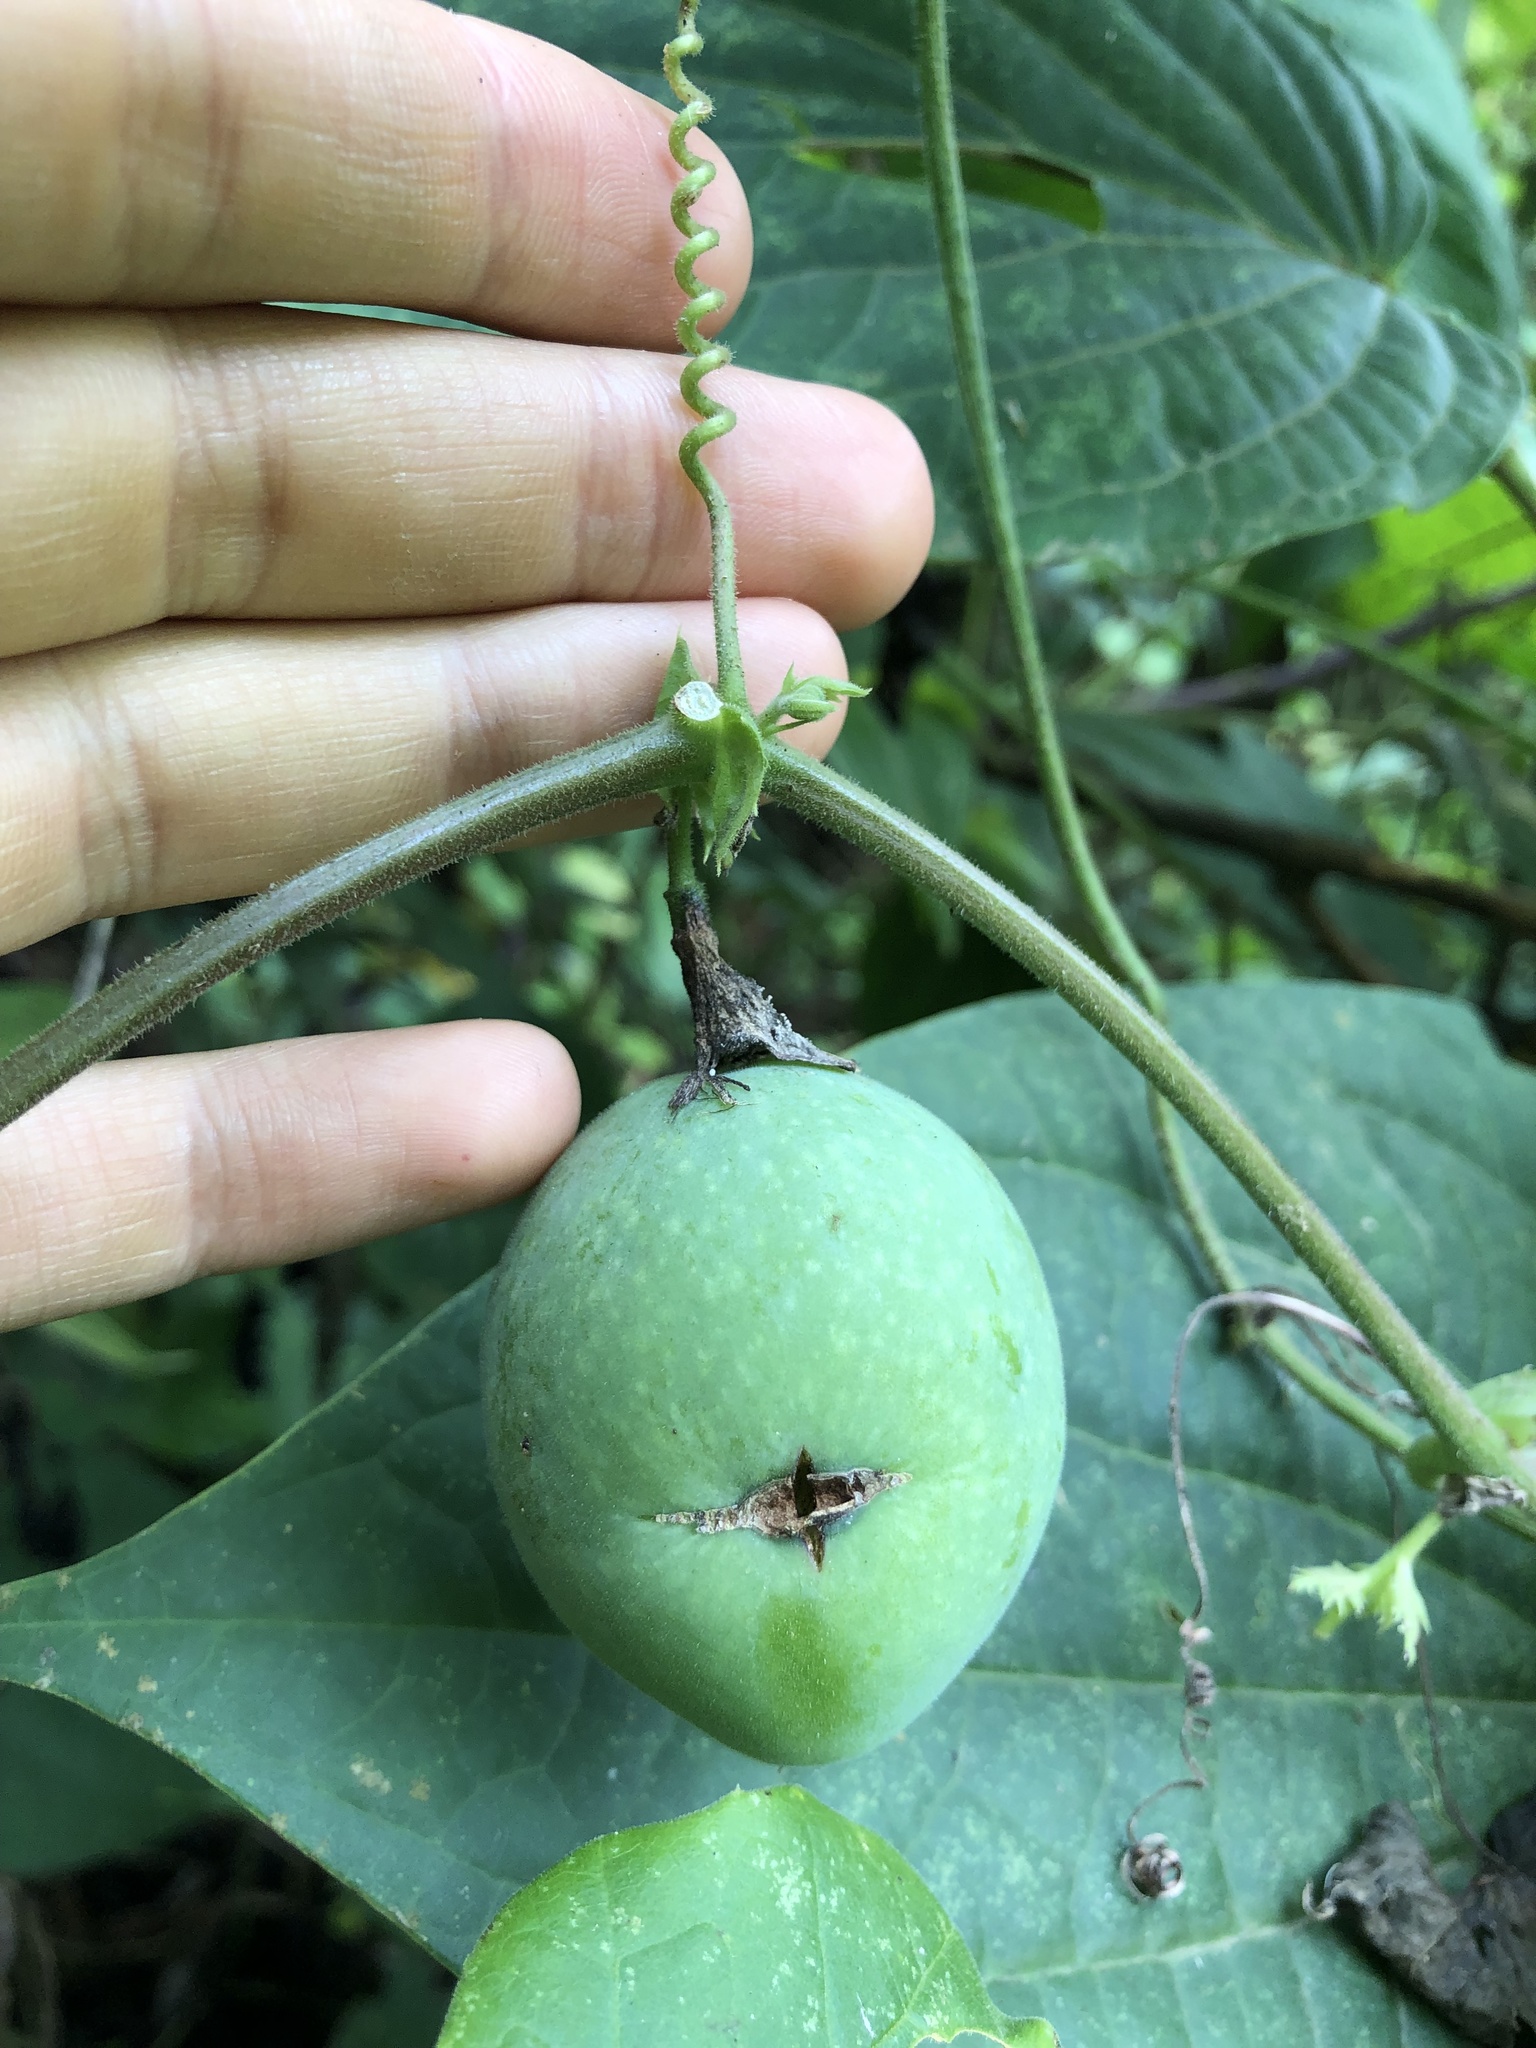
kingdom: Plantae
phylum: Tracheophyta
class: Magnoliopsida
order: Malpighiales
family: Passifloraceae
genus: Passiflora
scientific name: Passiflora adenopoda
